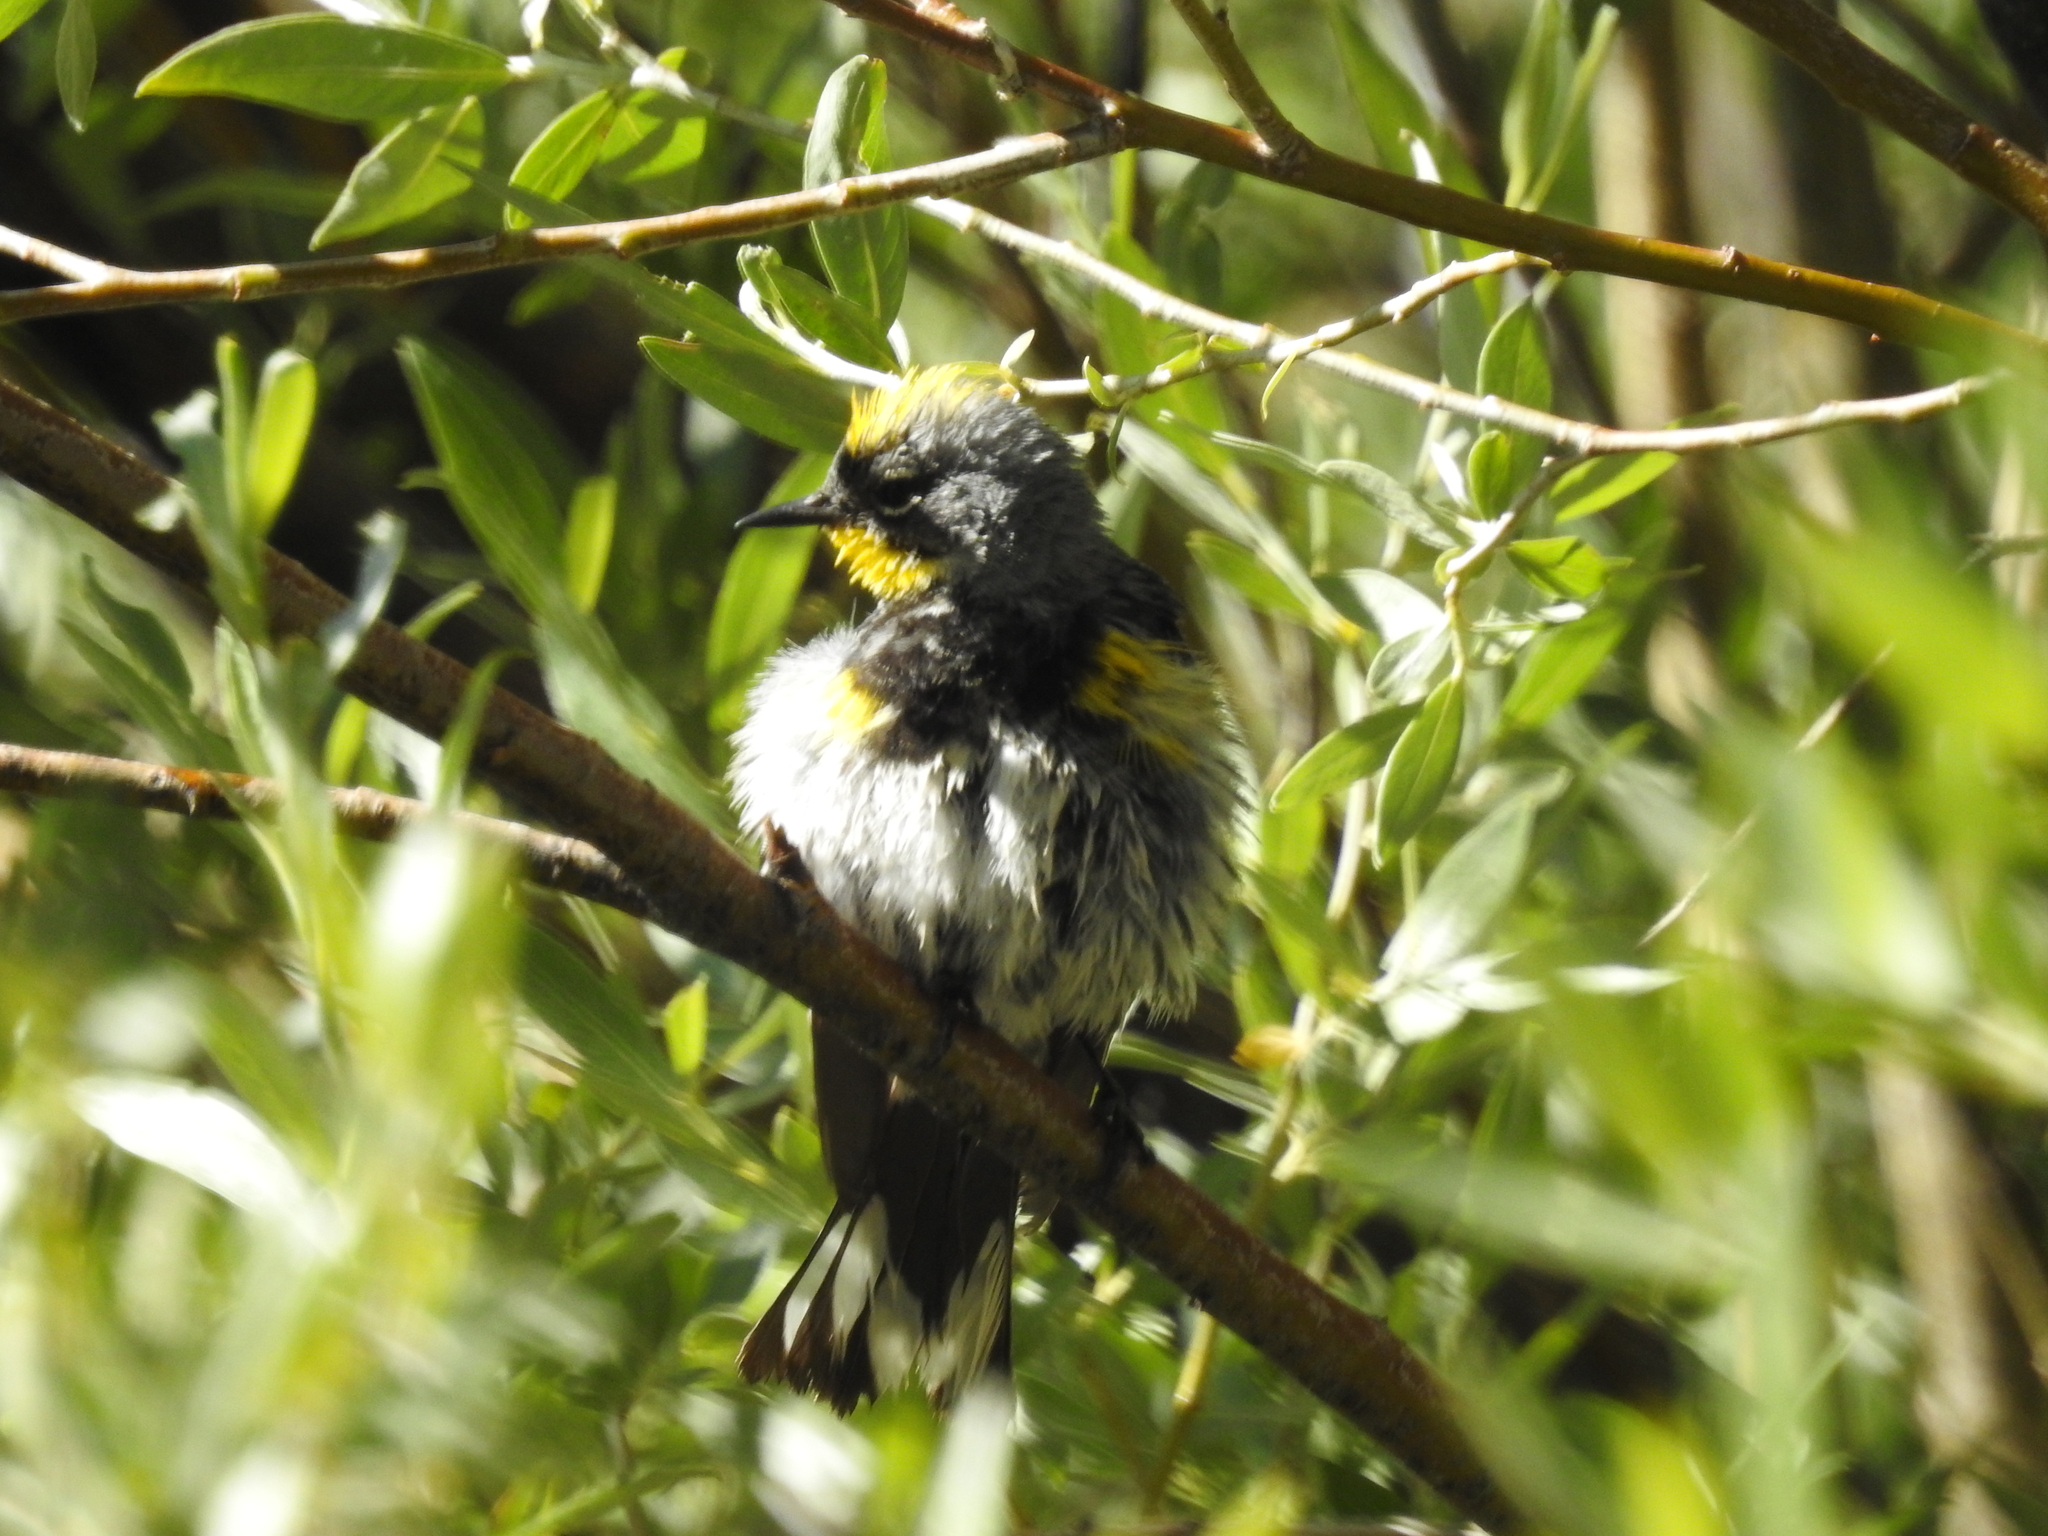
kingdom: Animalia
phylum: Chordata
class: Aves
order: Passeriformes
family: Parulidae
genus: Setophaga
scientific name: Setophaga coronata
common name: Myrtle warbler
